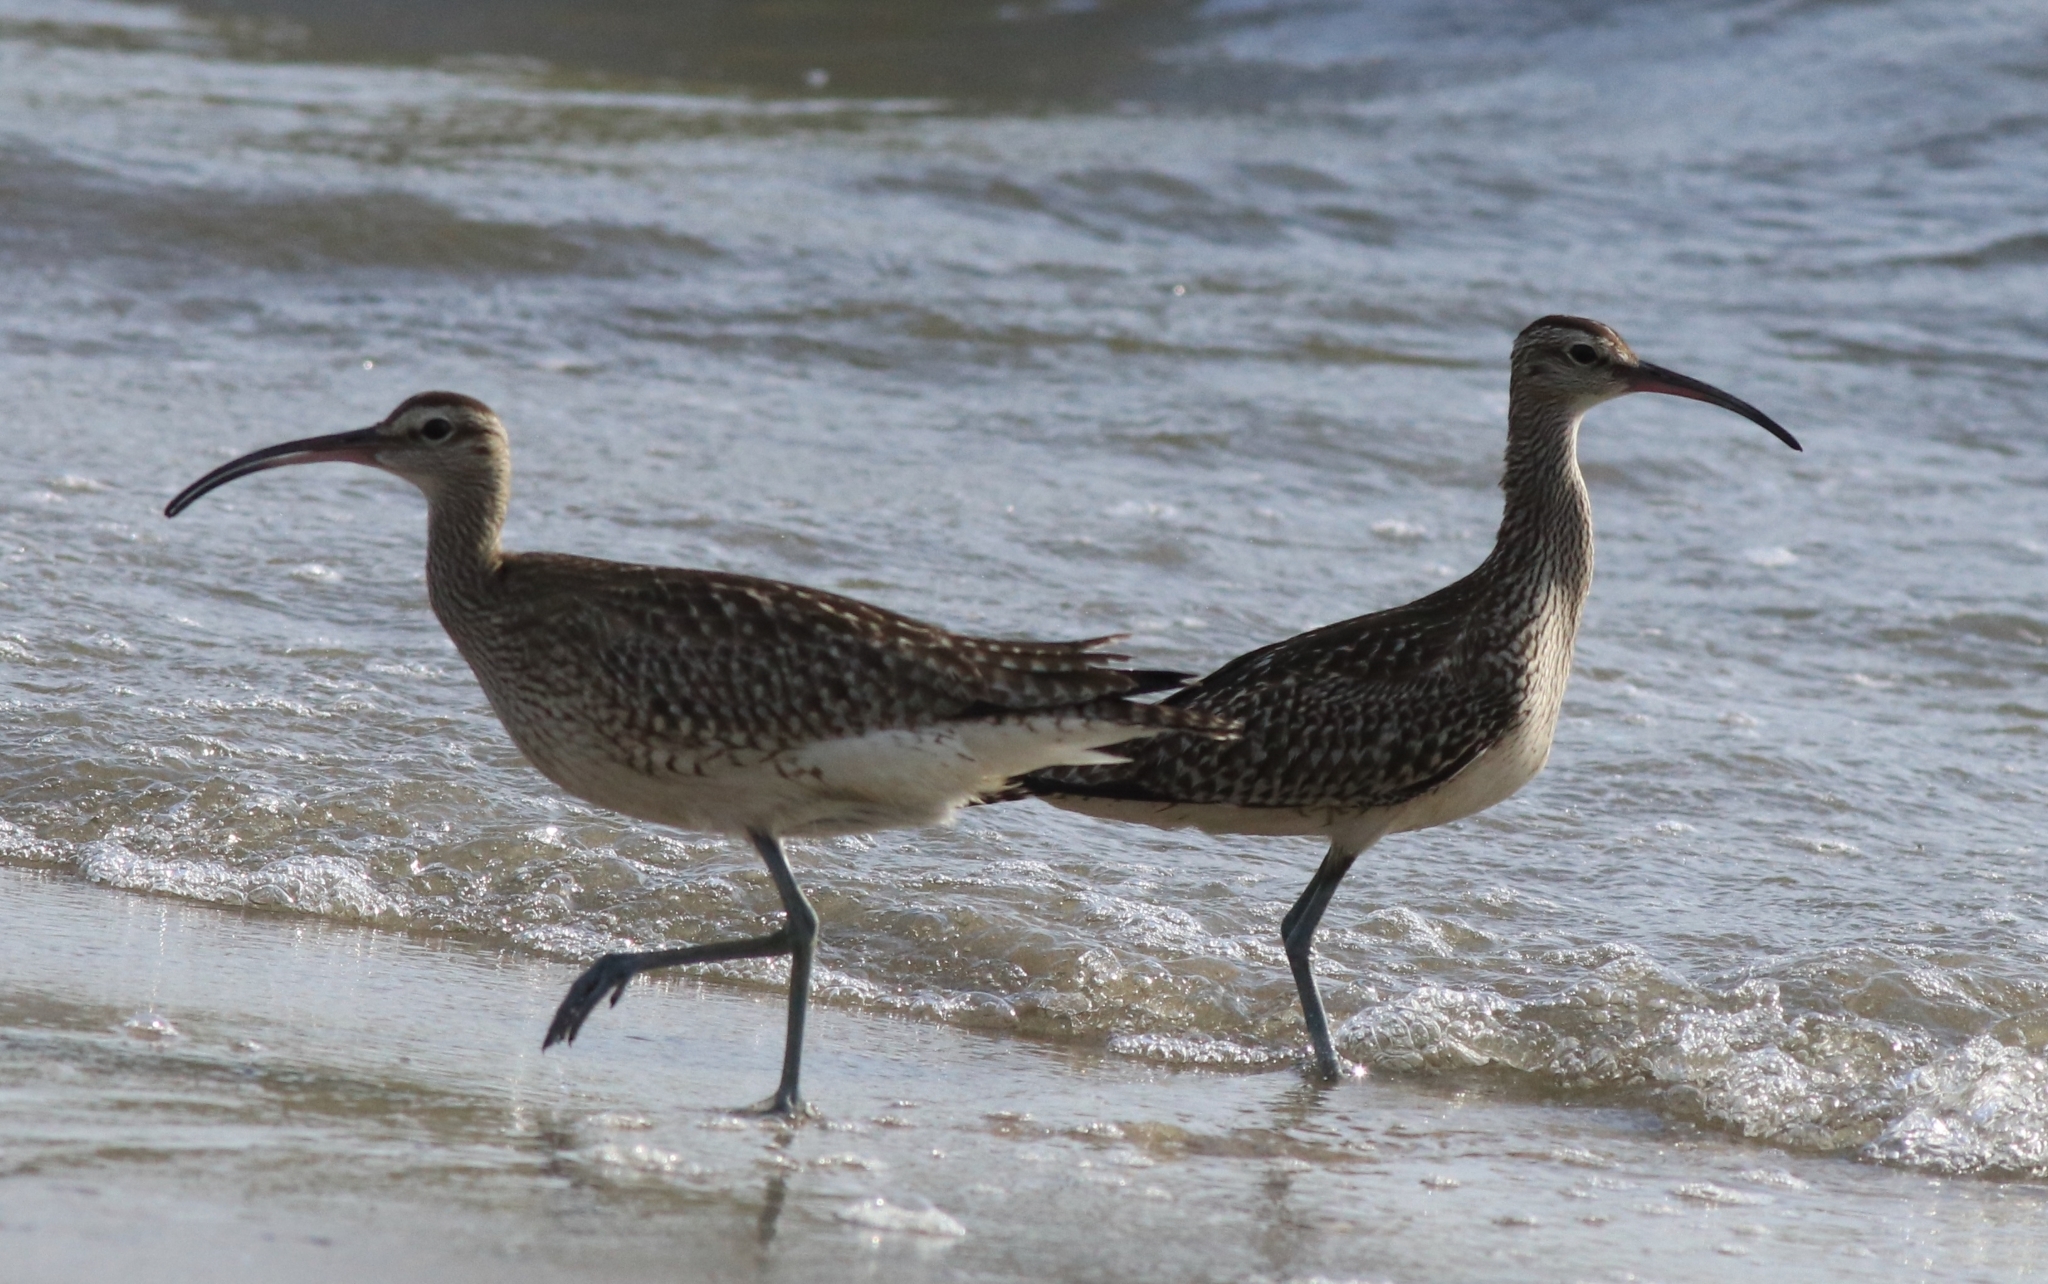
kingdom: Animalia
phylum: Chordata
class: Aves
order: Charadriiformes
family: Scolopacidae
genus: Numenius
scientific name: Numenius phaeopus
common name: Whimbrel
